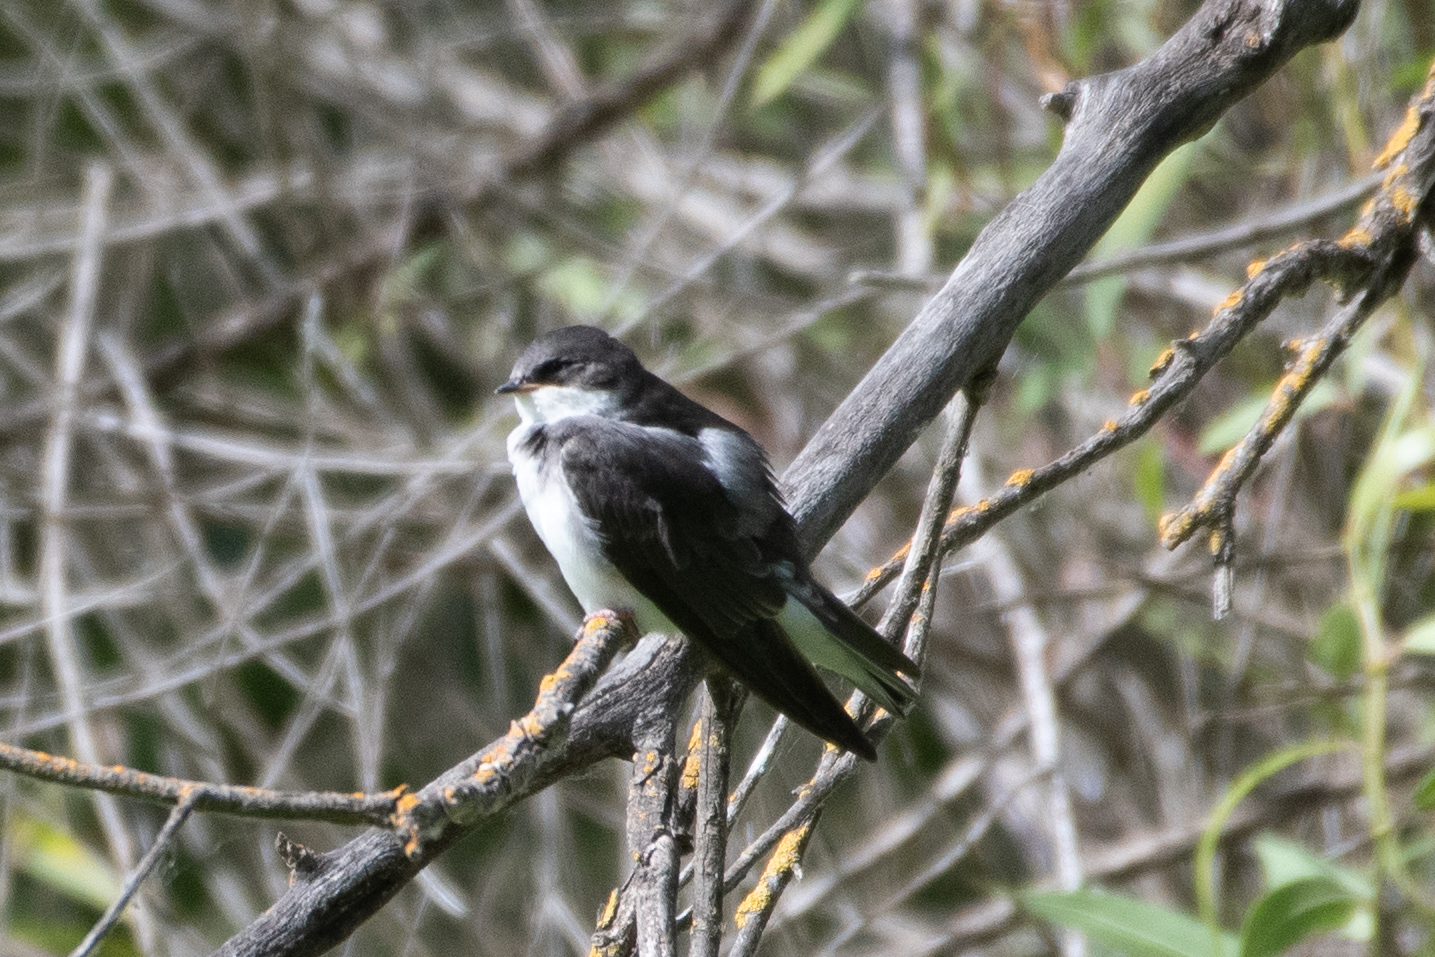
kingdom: Animalia
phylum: Chordata
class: Aves
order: Passeriformes
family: Hirundinidae
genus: Tachycineta
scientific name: Tachycineta bicolor
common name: Tree swallow
